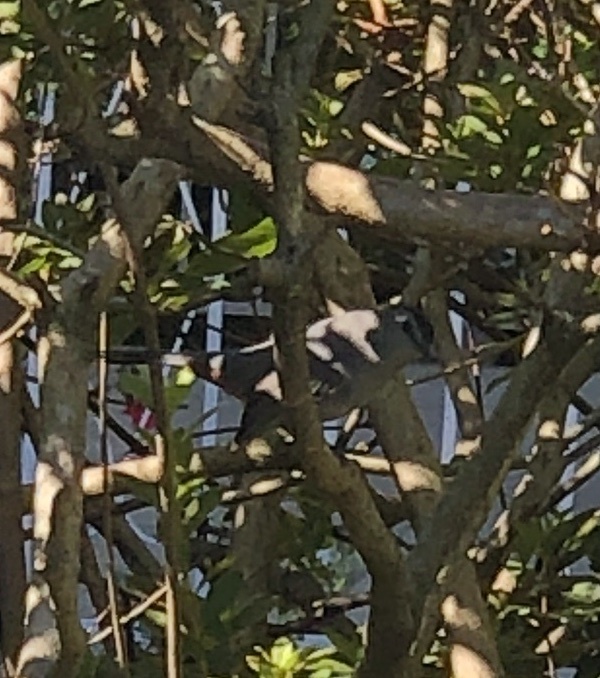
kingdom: Animalia
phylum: Chordata
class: Aves
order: Passeriformes
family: Mimidae
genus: Dumetella
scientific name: Dumetella carolinensis
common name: Gray catbird
